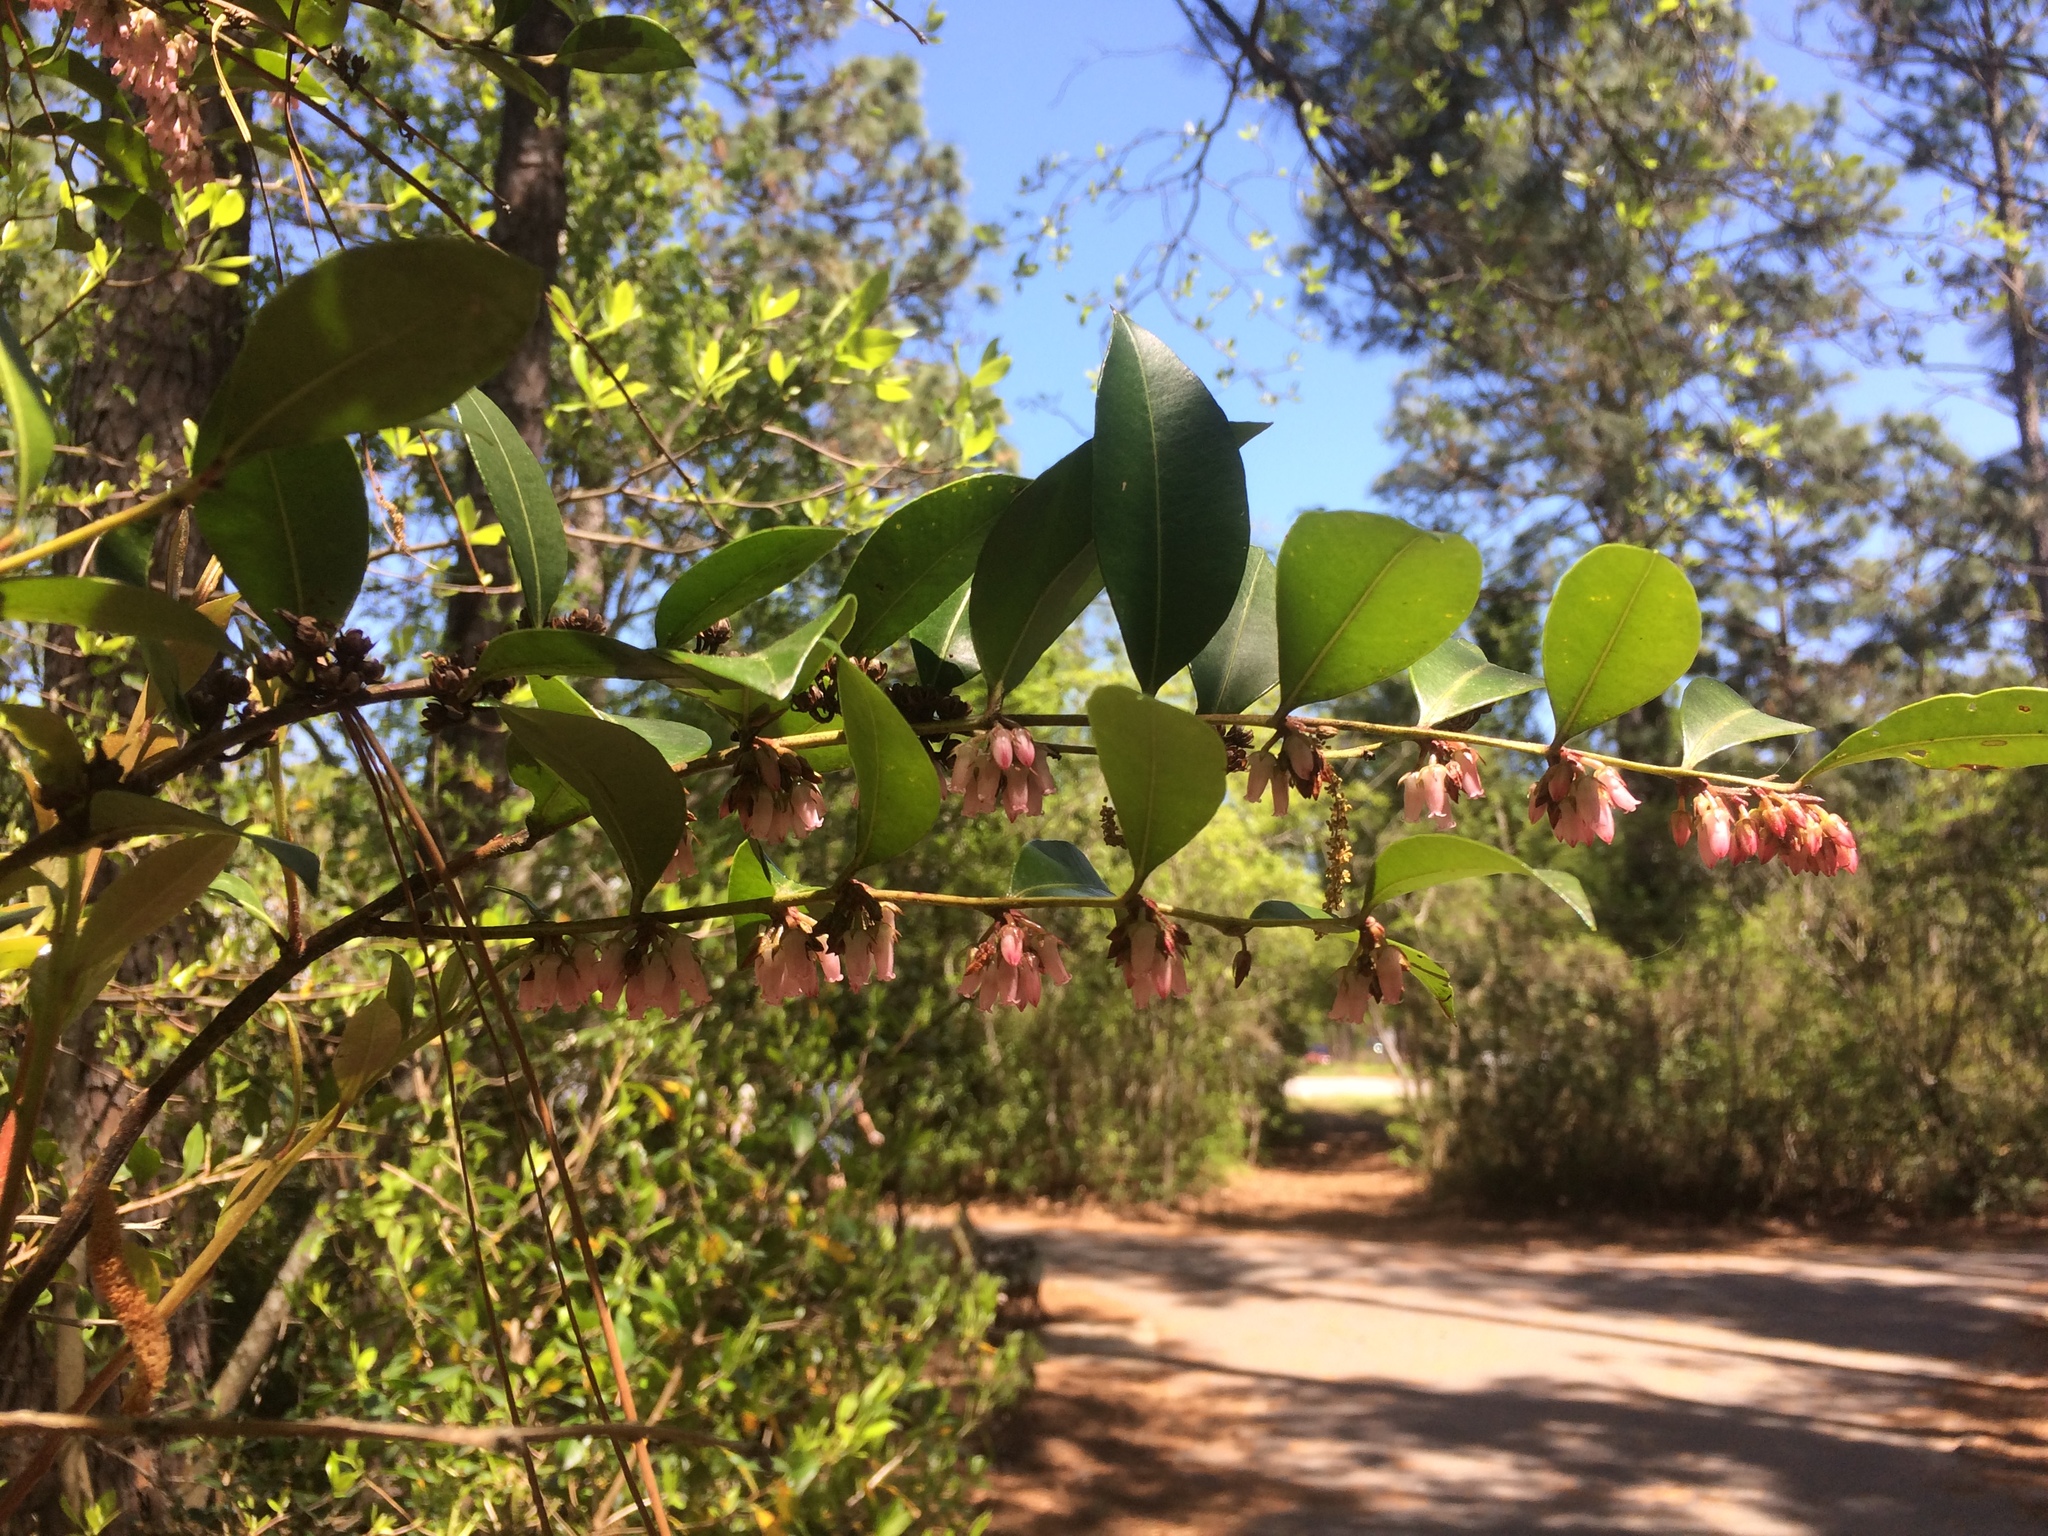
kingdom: Plantae
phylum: Tracheophyta
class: Magnoliopsida
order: Ericales
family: Ericaceae
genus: Lyonia
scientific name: Lyonia lucida
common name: Fetterbush
